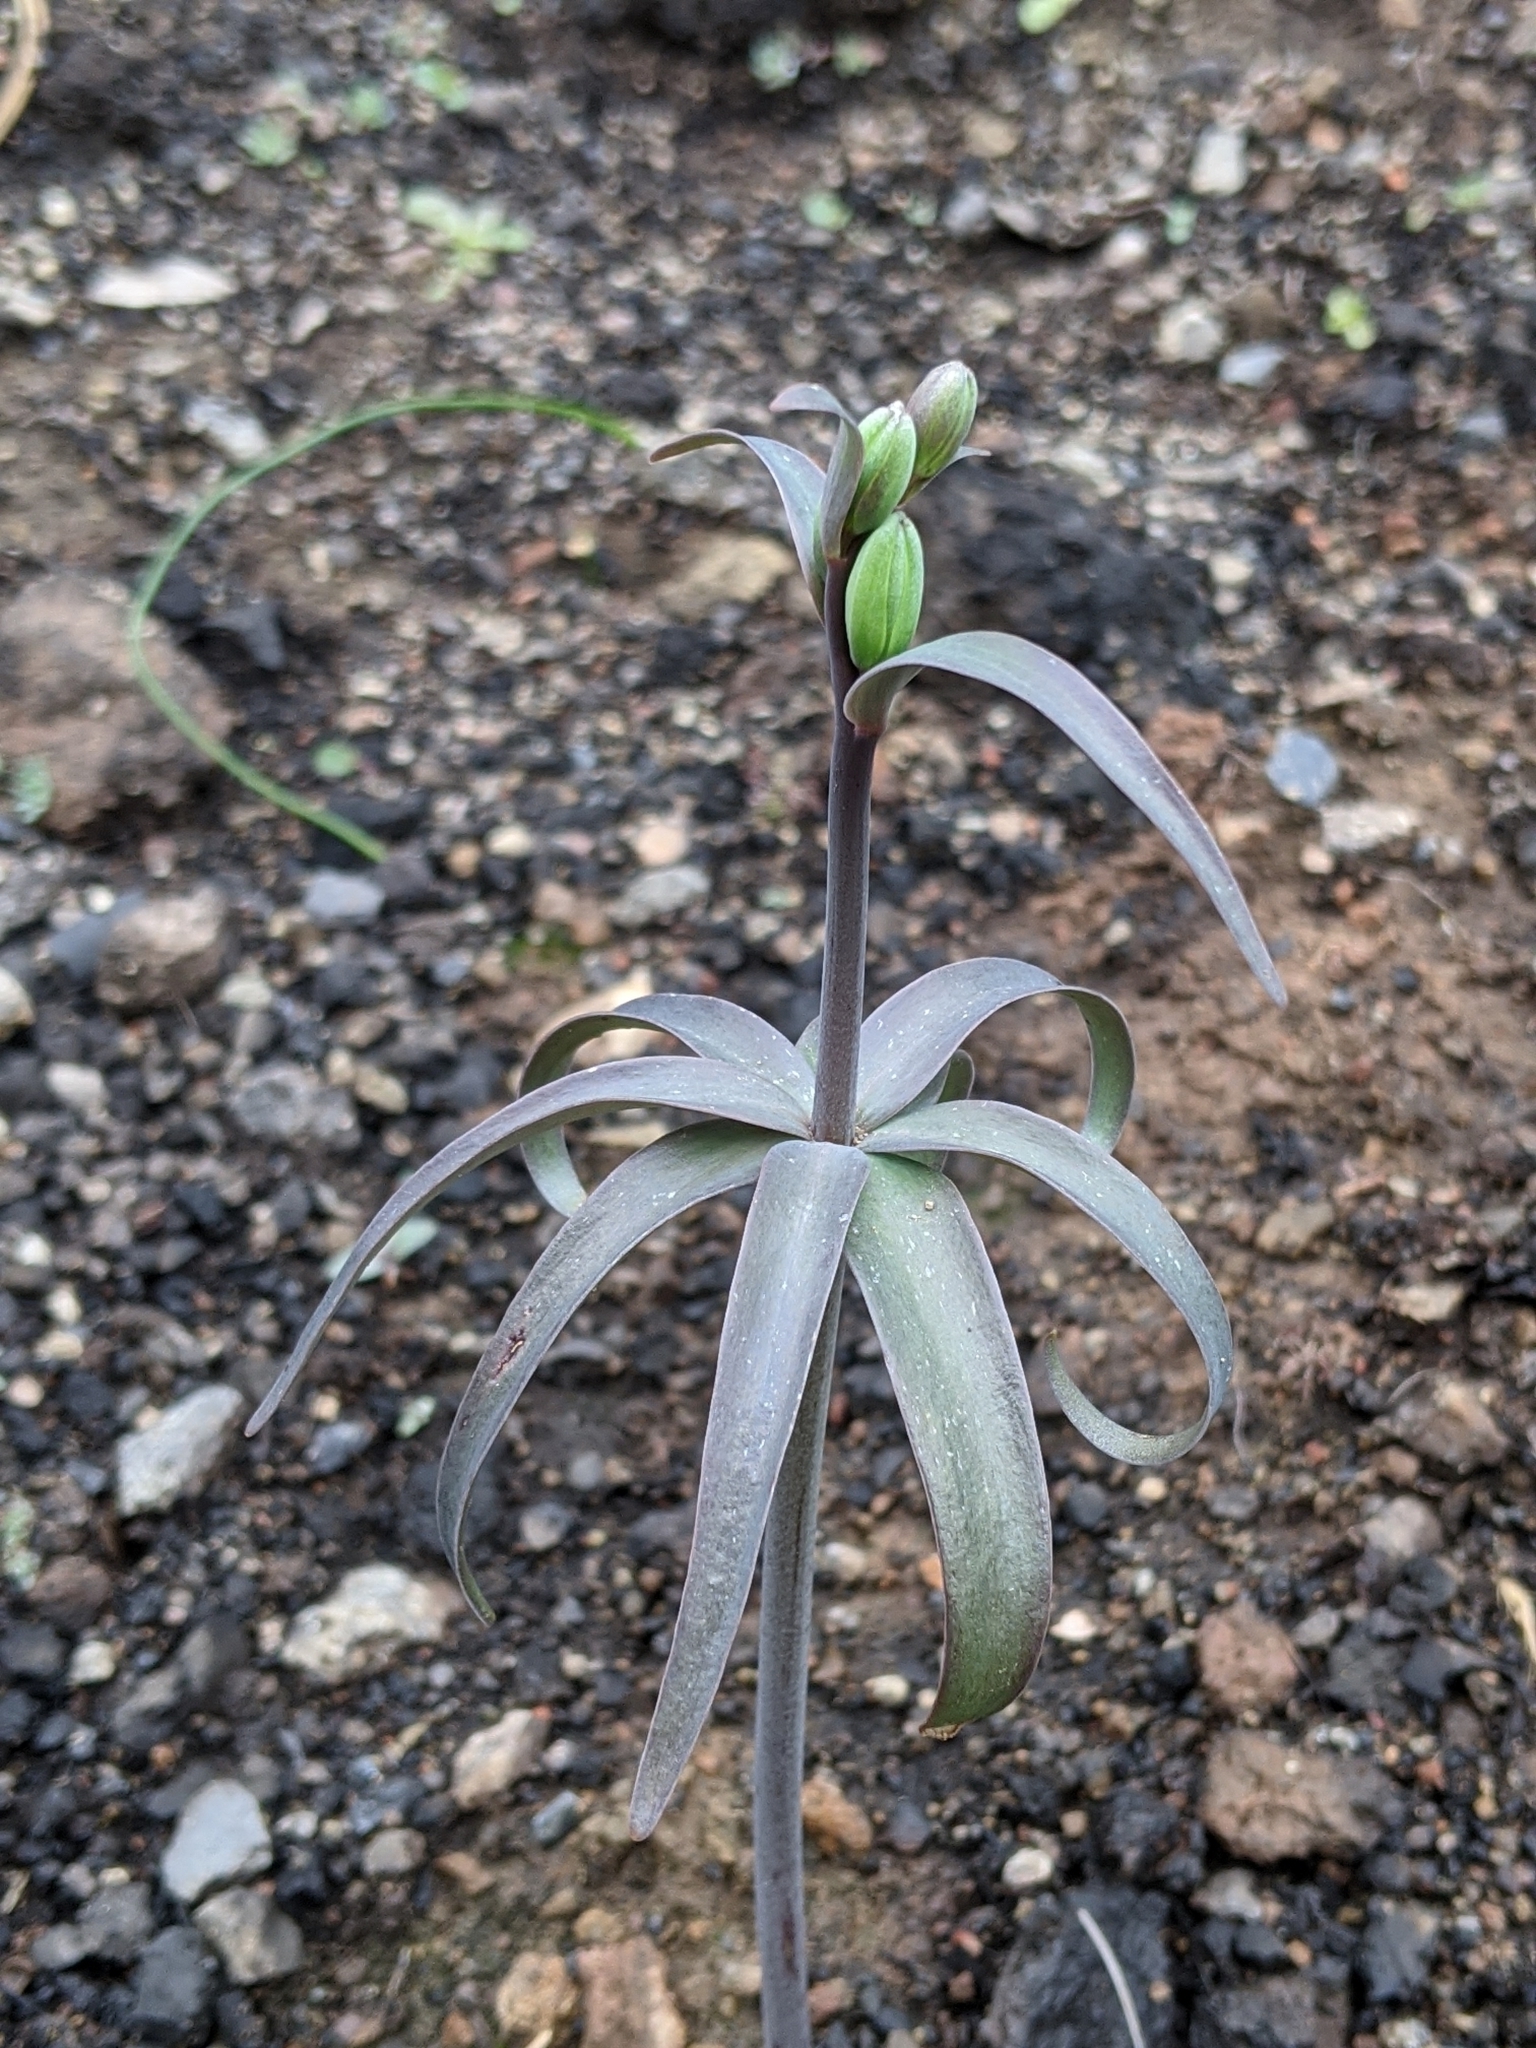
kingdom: Plantae
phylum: Tracheophyta
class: Liliopsida
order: Liliales
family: Liliaceae
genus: Fritillaria
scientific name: Fritillaria affinis
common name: Ojai fritillary
